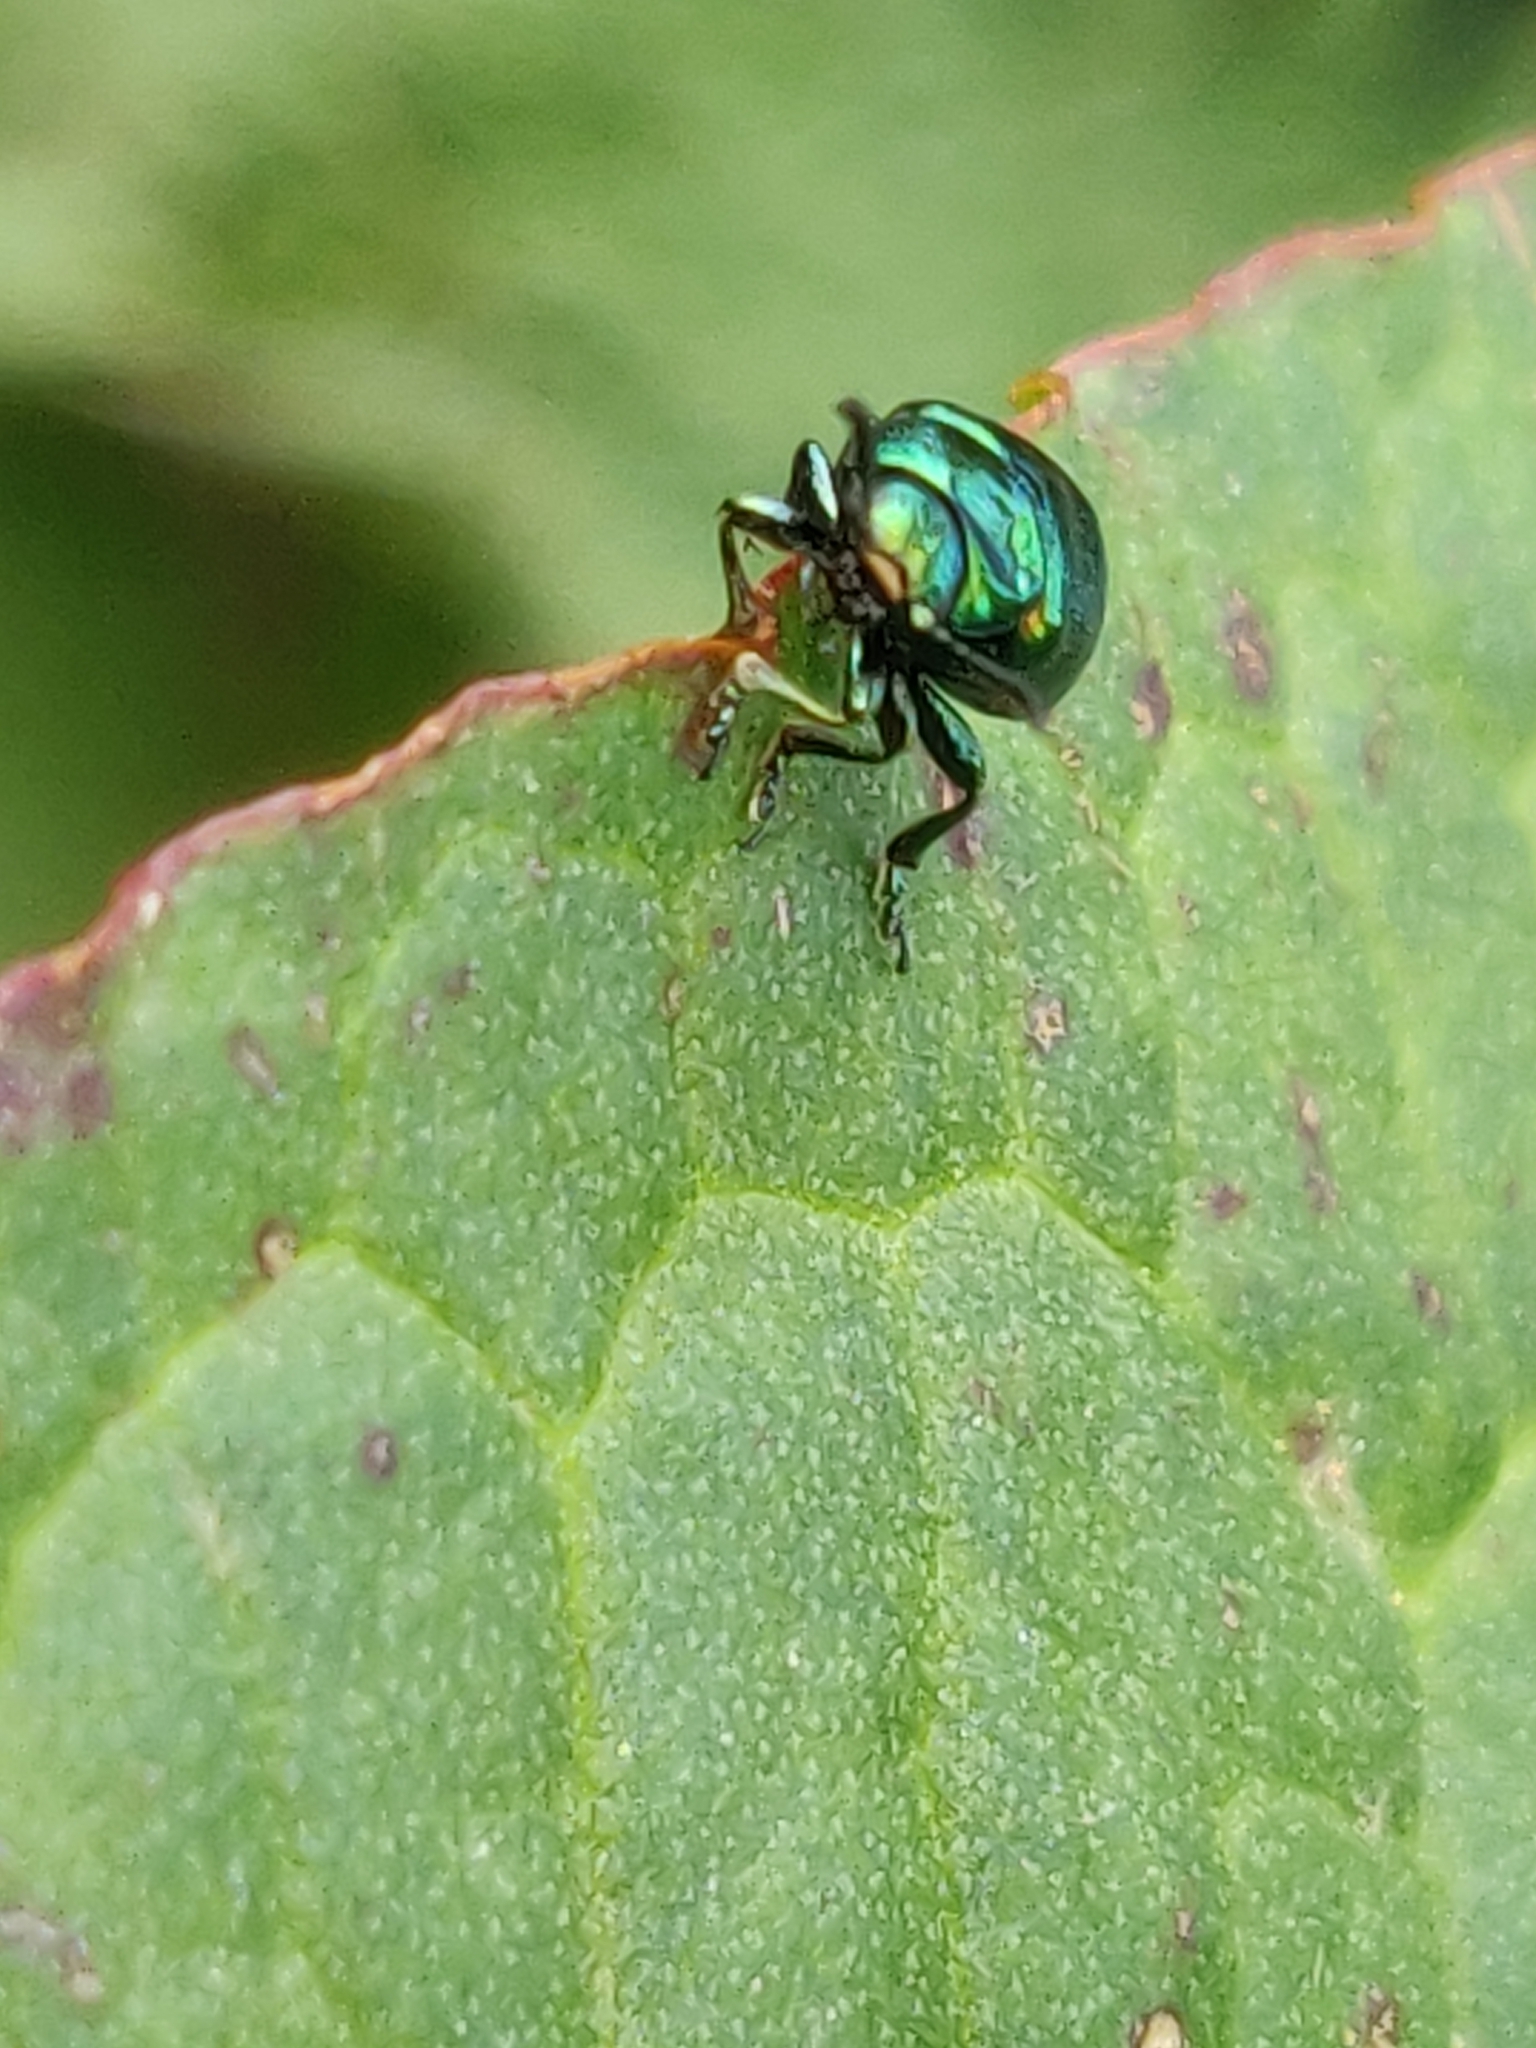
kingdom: Animalia
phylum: Arthropoda
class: Insecta
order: Coleoptera
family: Chrysomelidae
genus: Gastrophysa
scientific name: Gastrophysa viridula
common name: Green dock beetle
